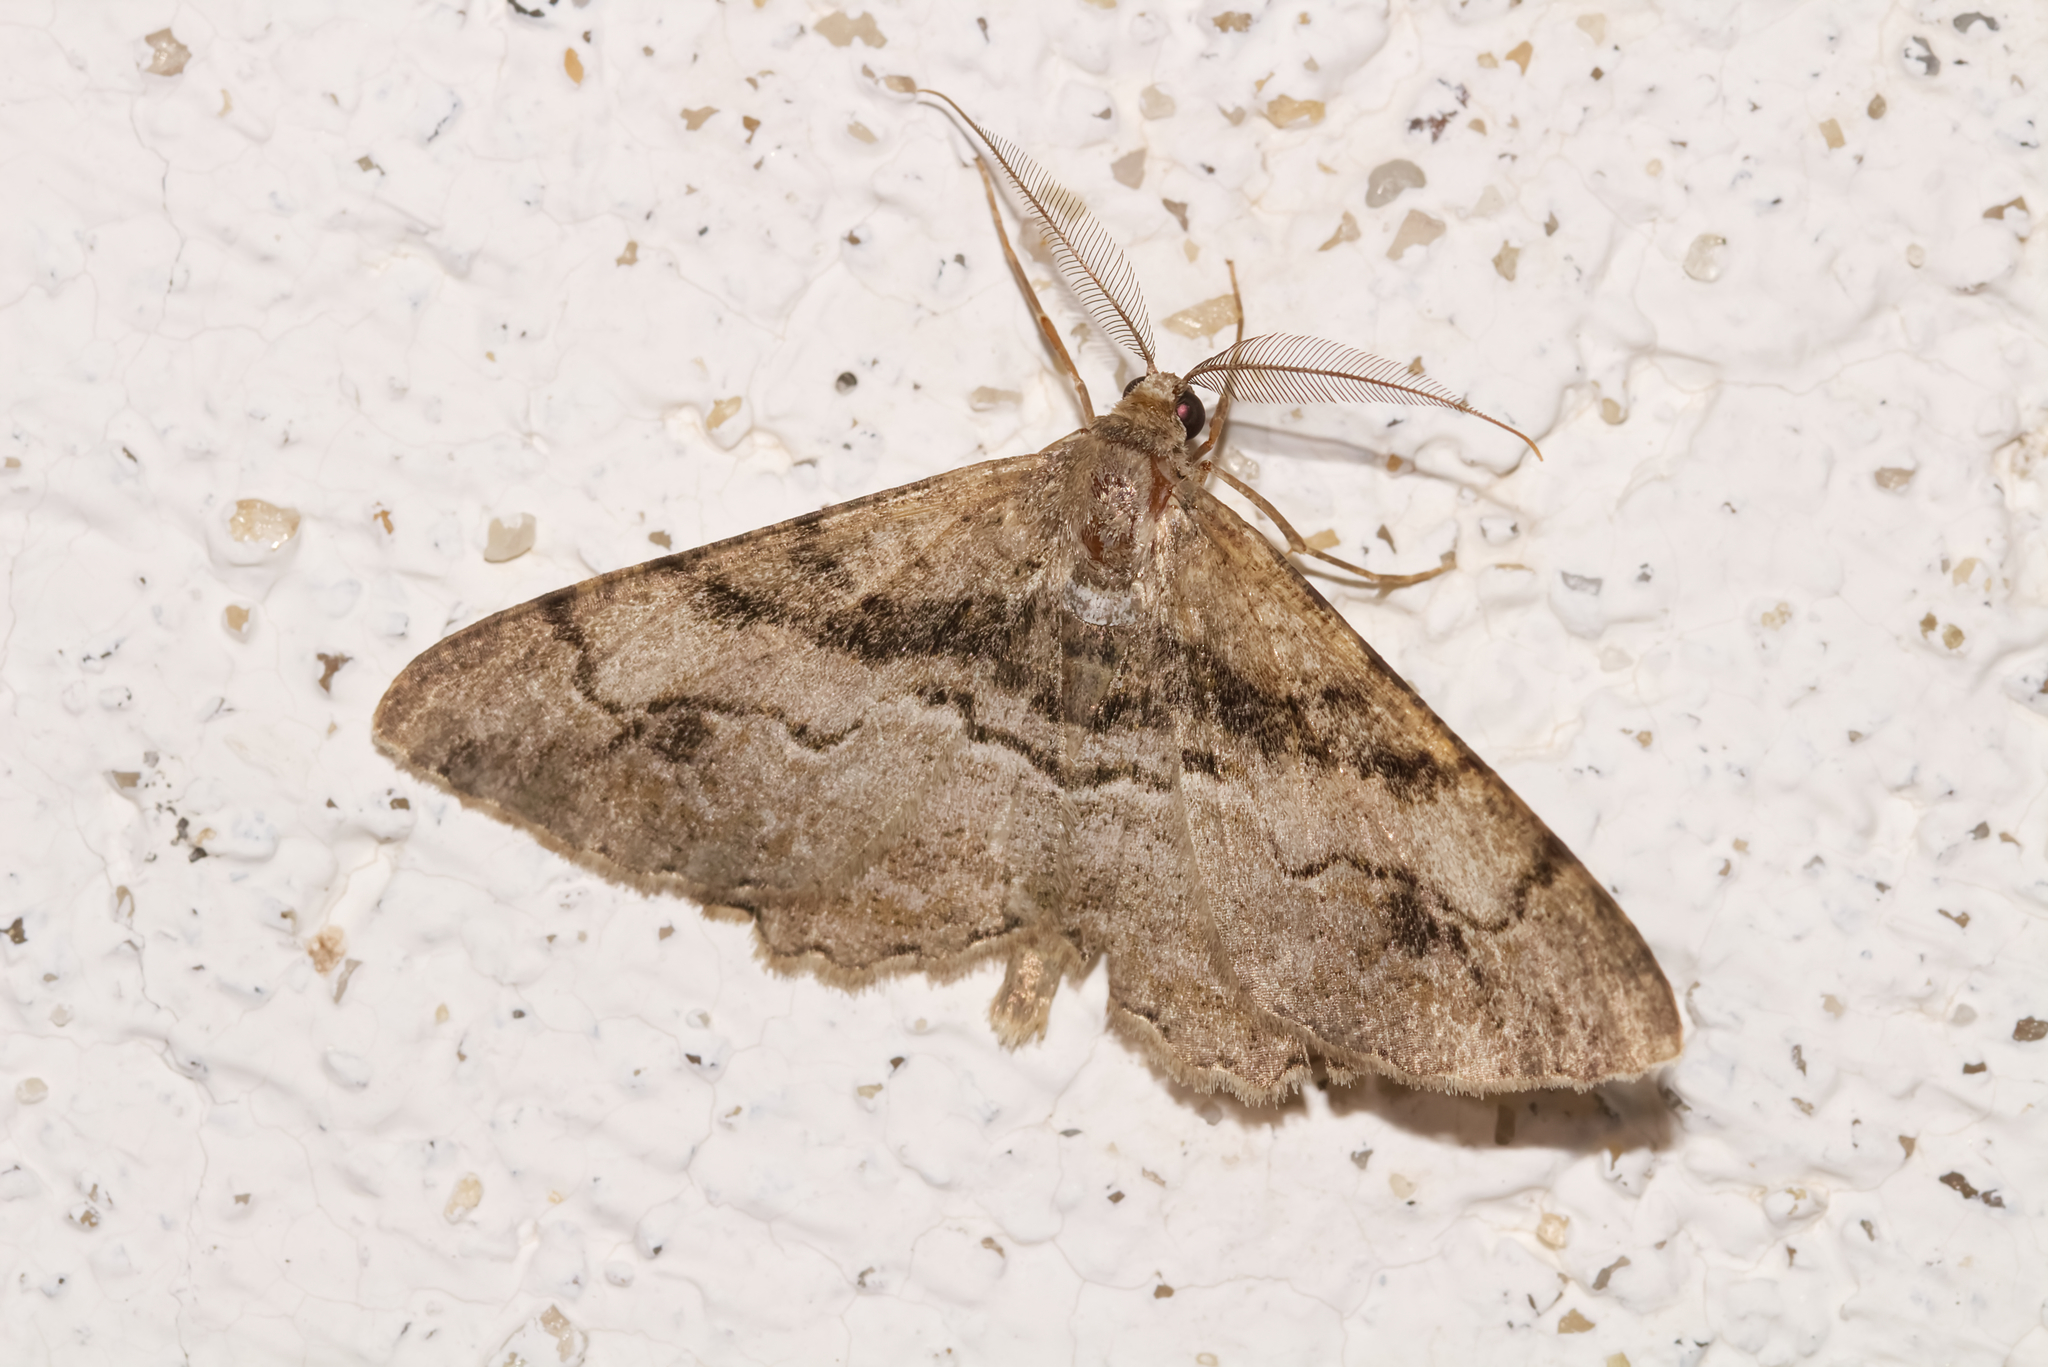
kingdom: Animalia
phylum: Arthropoda
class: Insecta
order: Lepidoptera
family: Geometridae
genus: Alcis
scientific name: Alcis deversata
